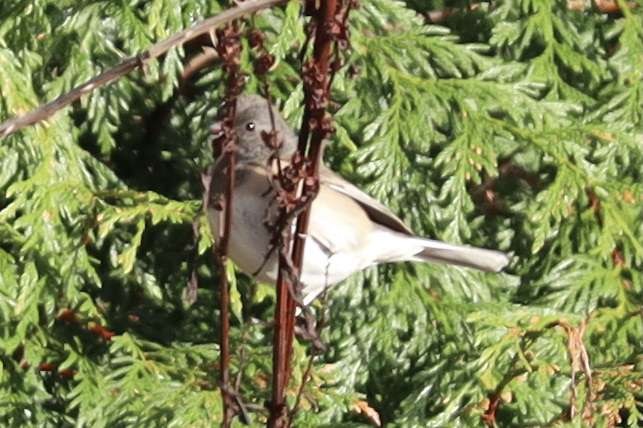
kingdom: Animalia
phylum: Chordata
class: Aves
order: Passeriformes
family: Passerellidae
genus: Junco
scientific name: Junco hyemalis
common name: Dark-eyed junco
